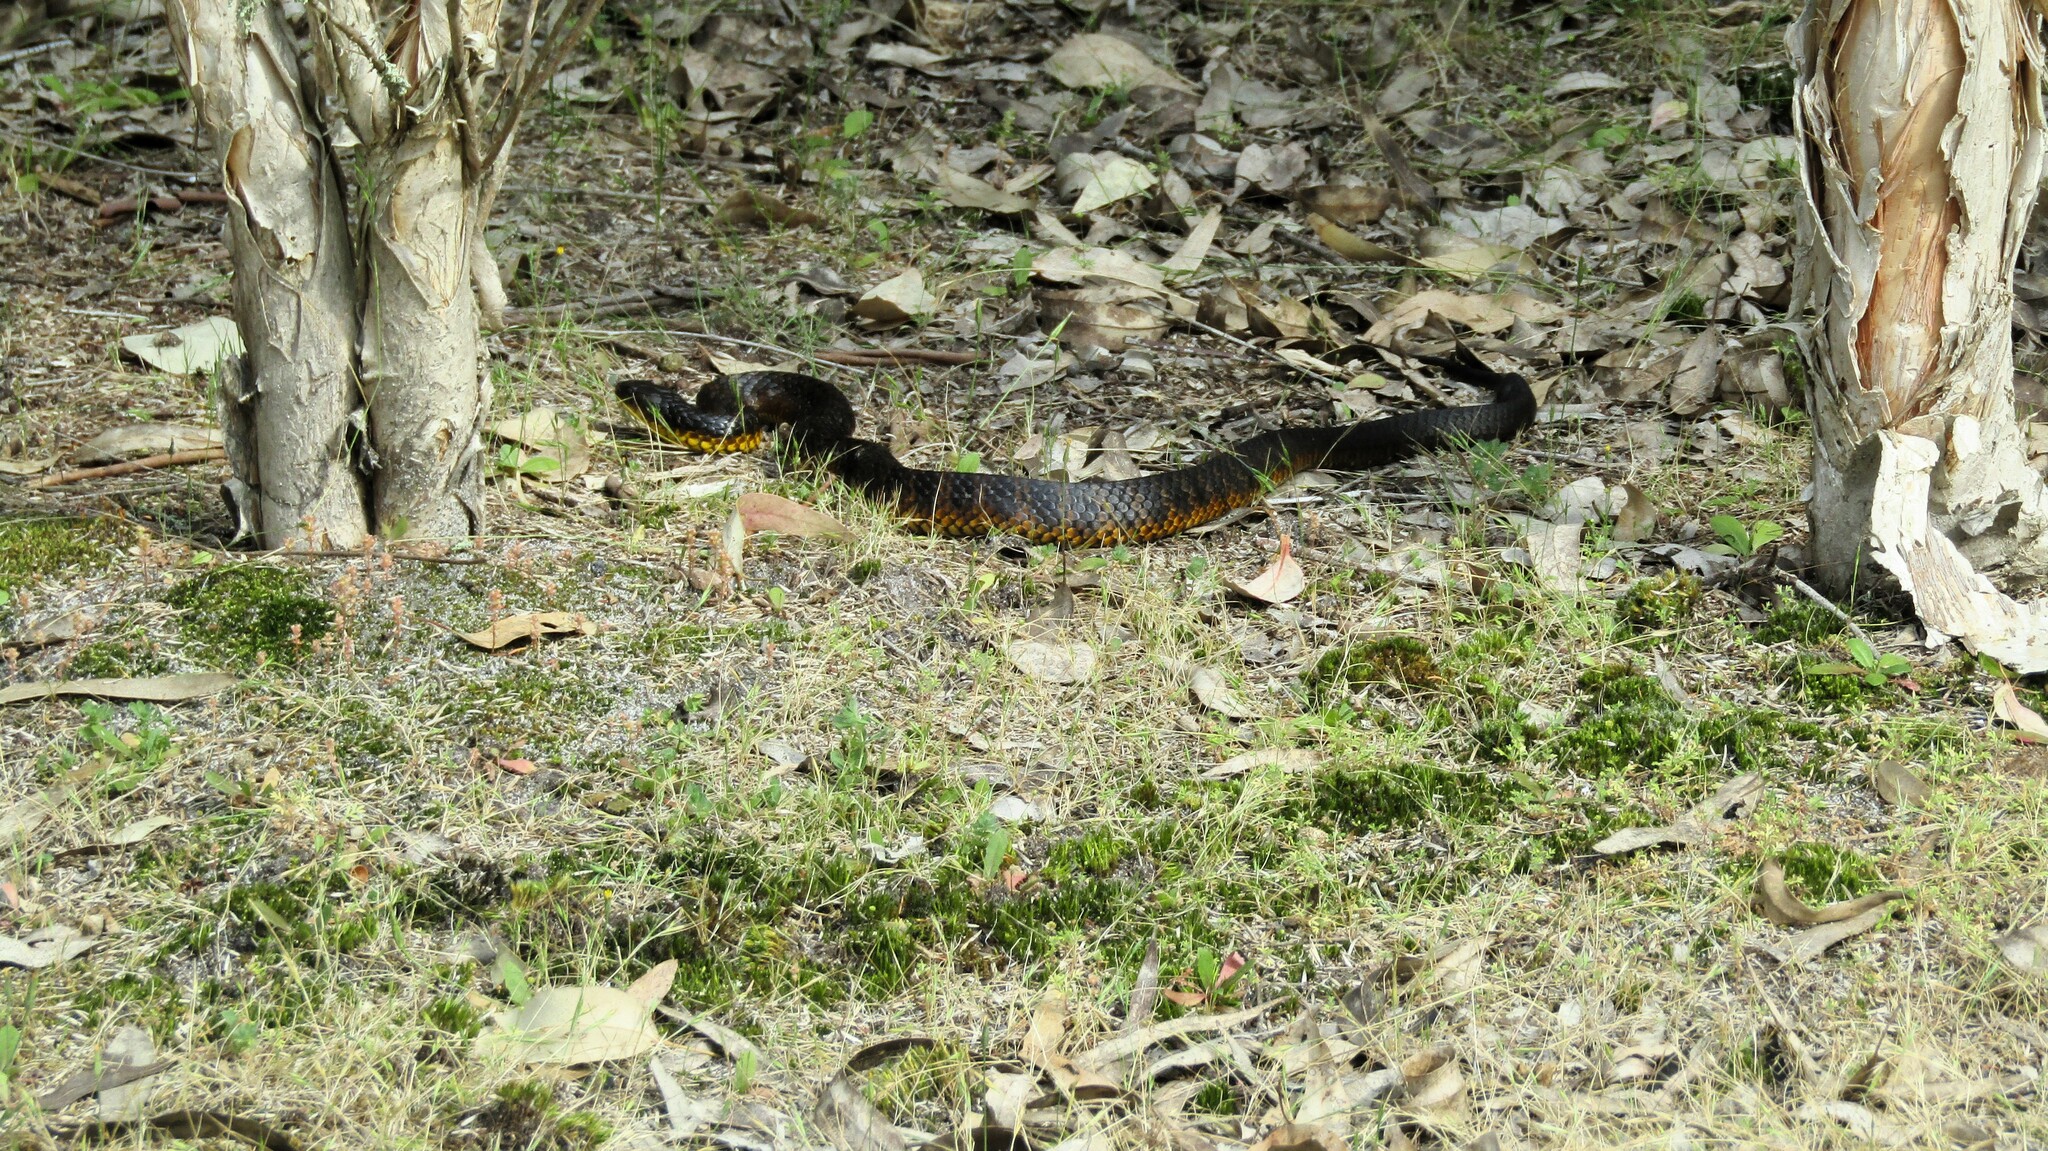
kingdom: Animalia
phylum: Chordata
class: Squamata
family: Elapidae
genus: Notechis
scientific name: Notechis scutatus
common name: Mainland tiger snake
